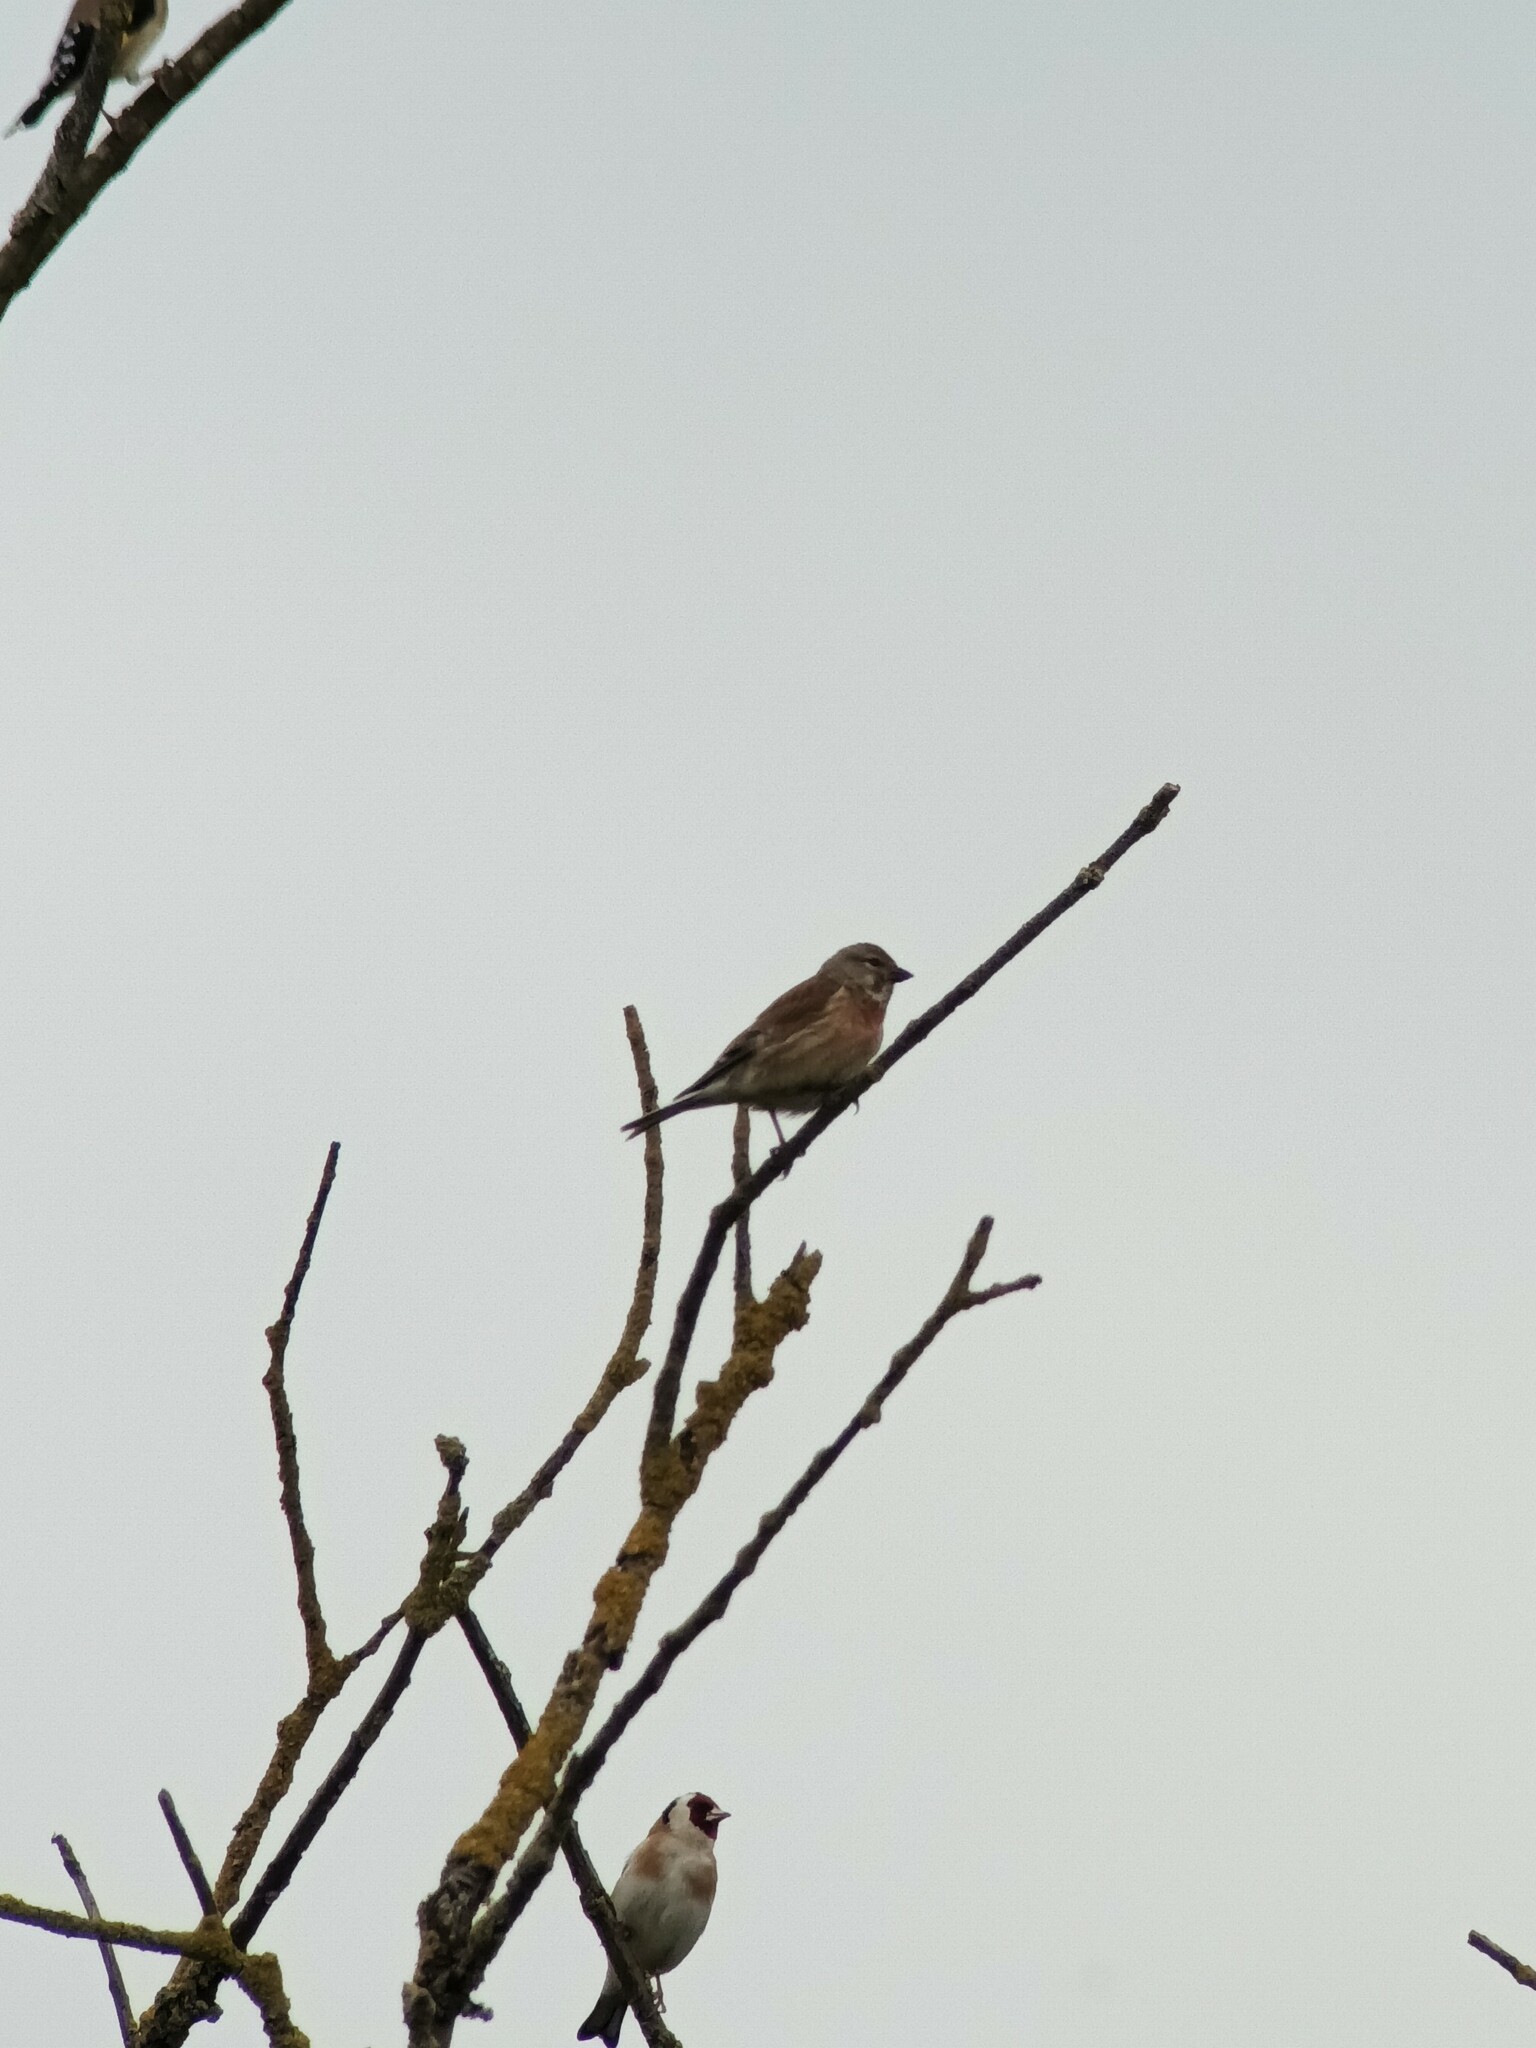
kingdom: Animalia
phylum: Chordata
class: Aves
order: Passeriformes
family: Fringillidae
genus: Linaria
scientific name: Linaria cannabina
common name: Common linnet
